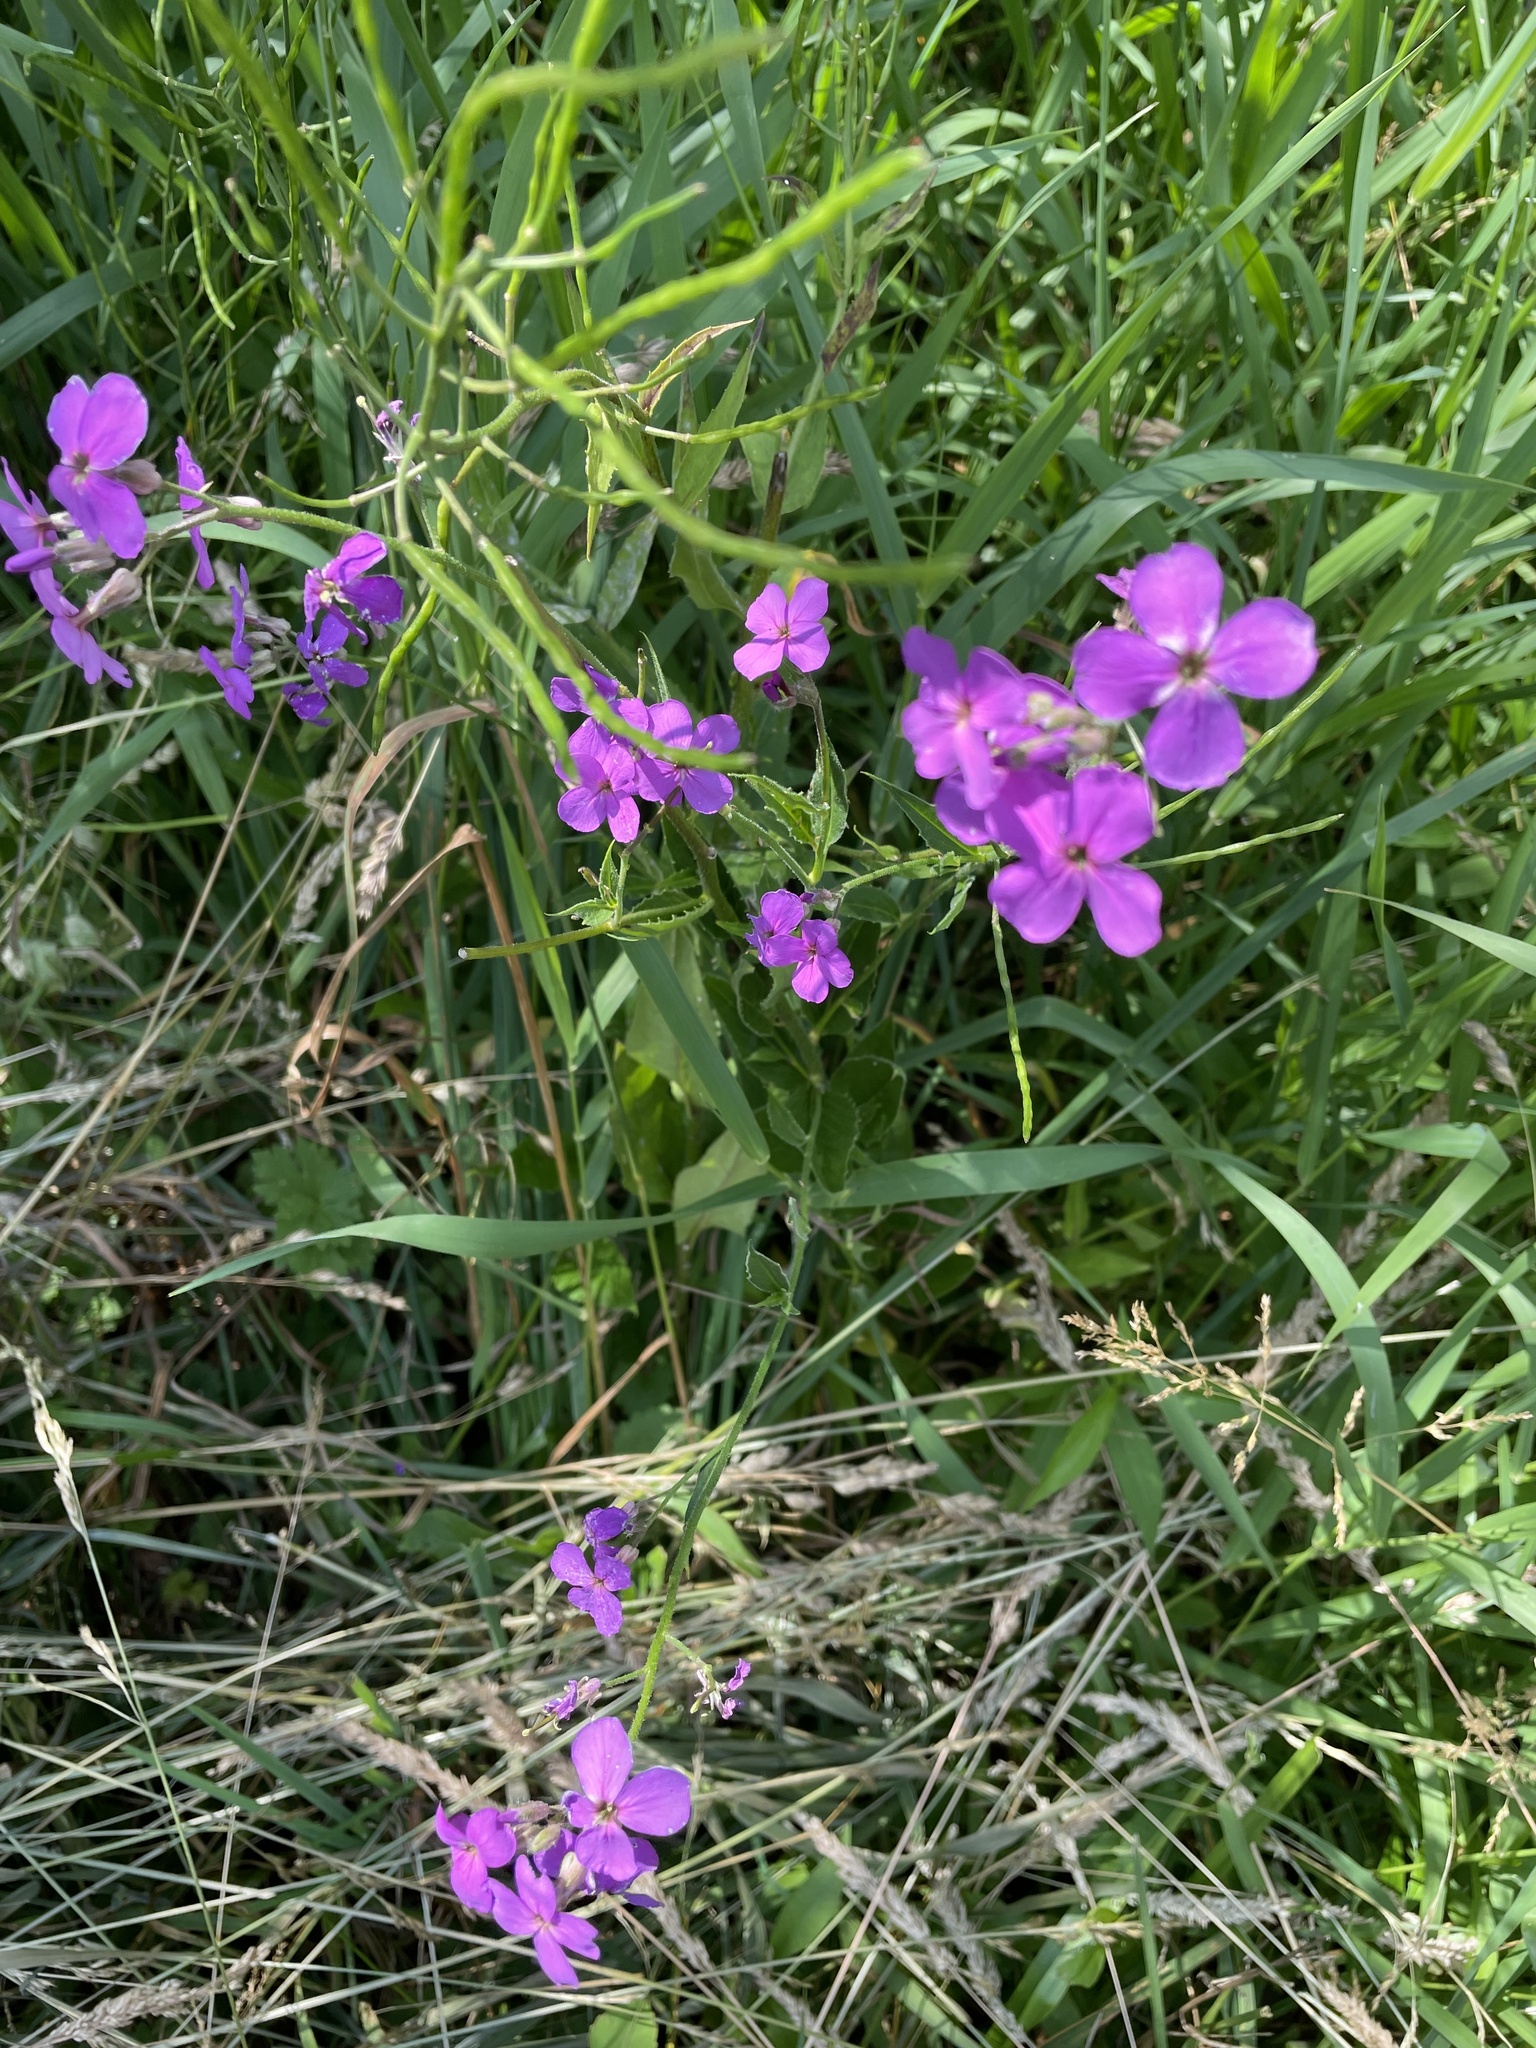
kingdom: Plantae
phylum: Tracheophyta
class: Magnoliopsida
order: Brassicales
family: Brassicaceae
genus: Hesperis
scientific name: Hesperis matronalis
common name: Dame's-violet
